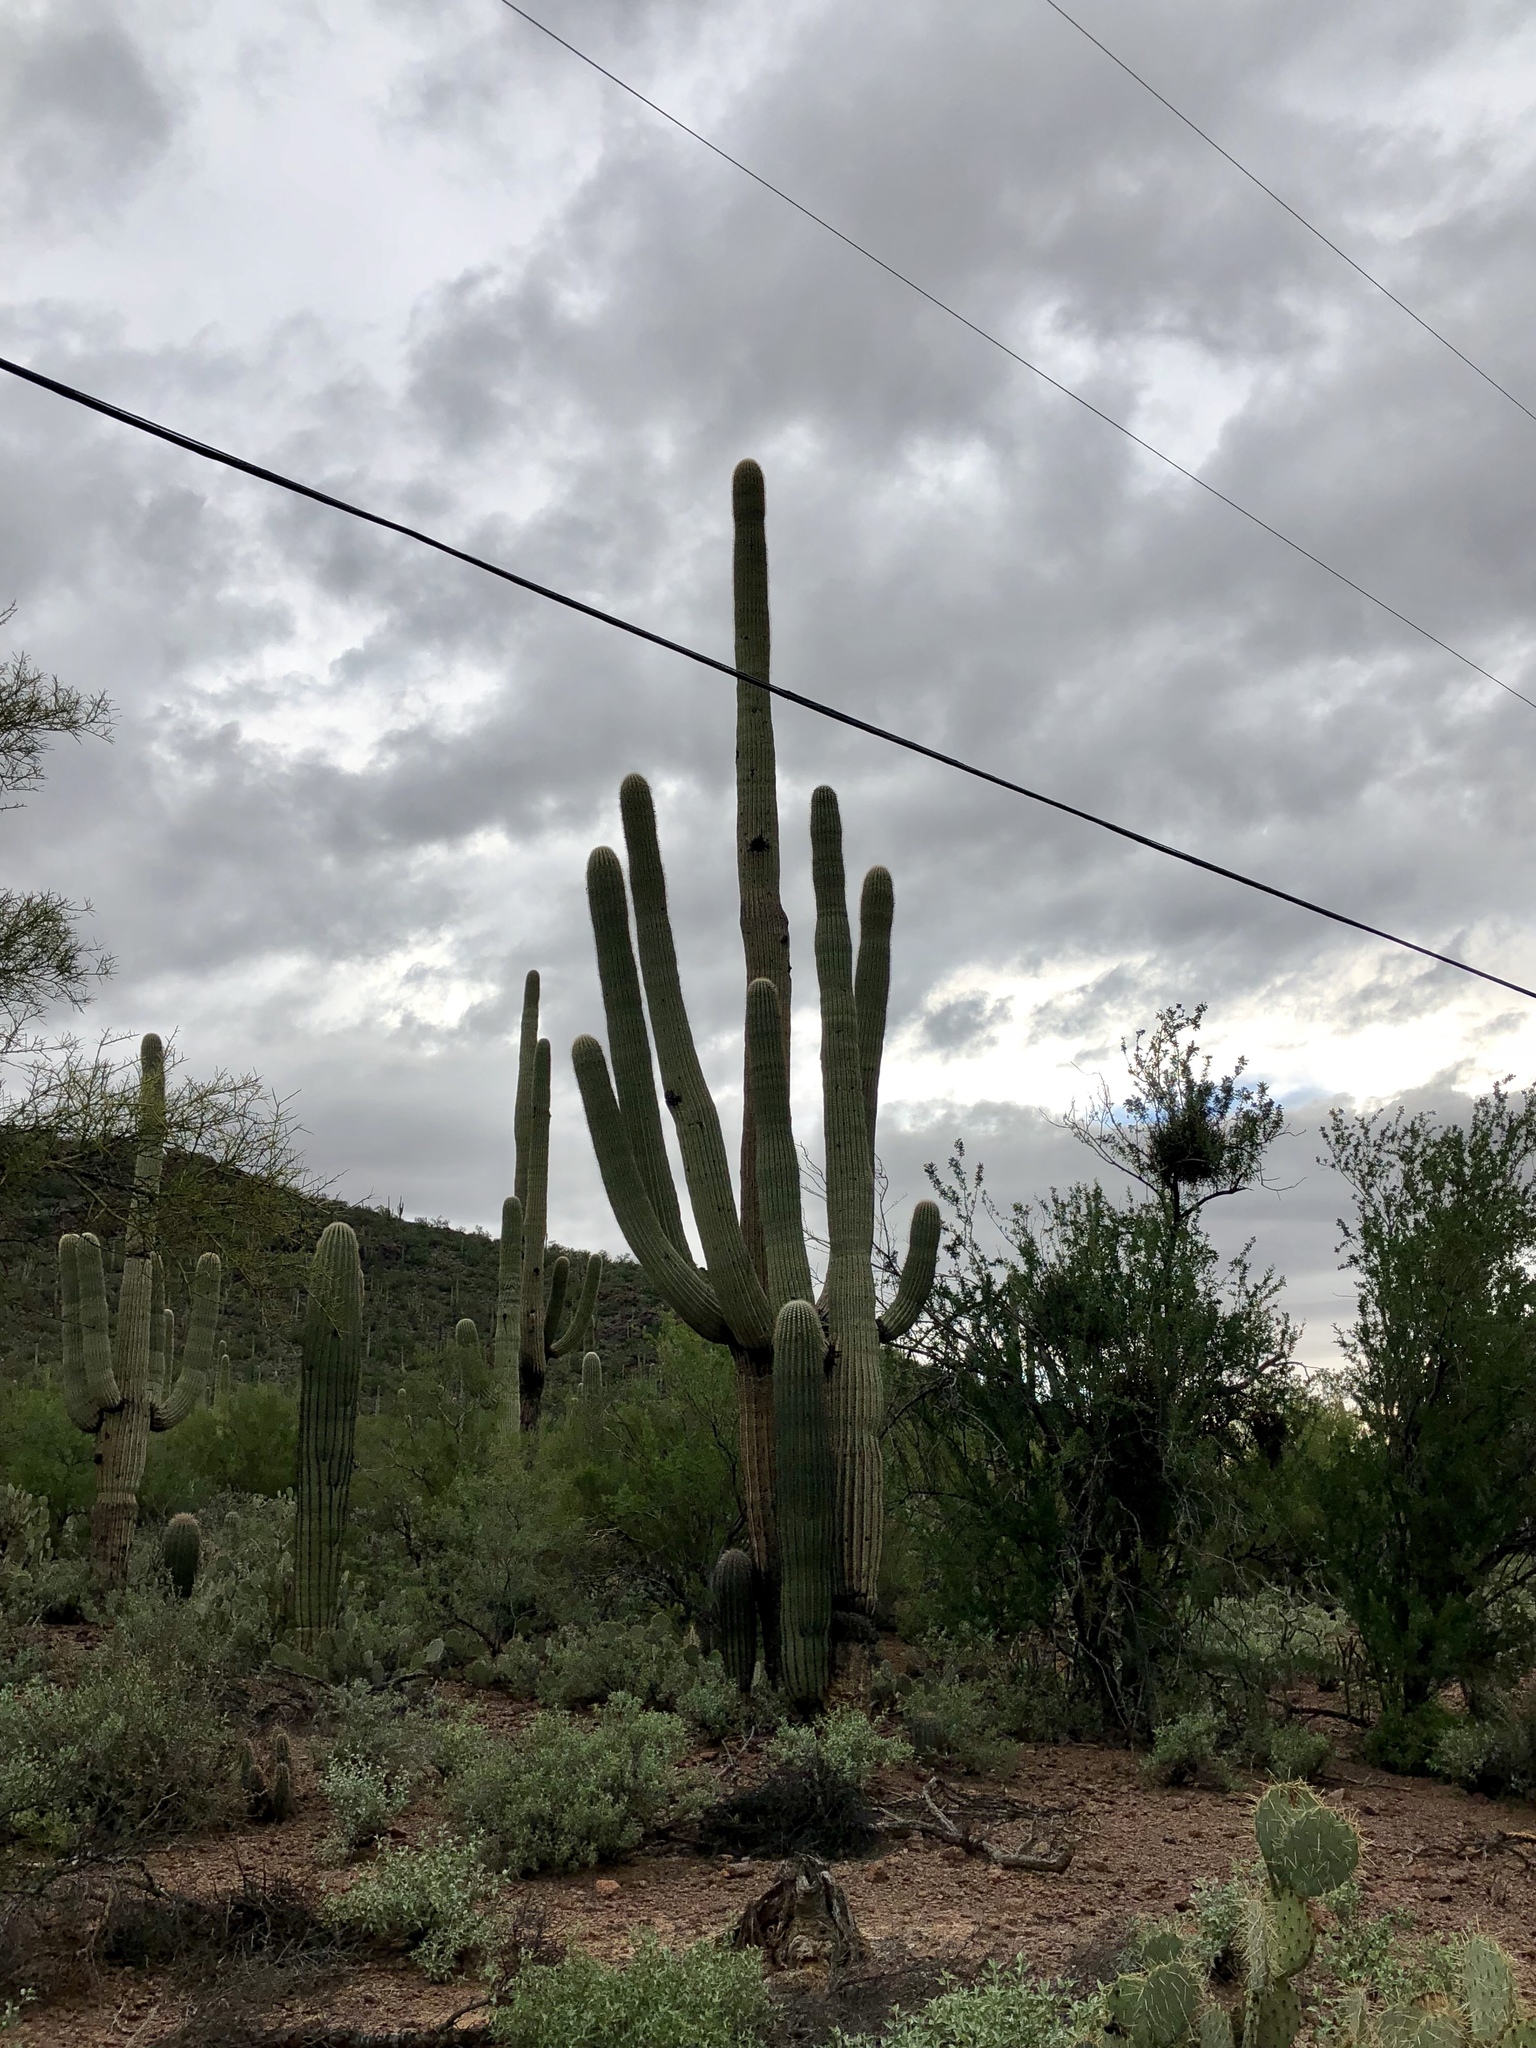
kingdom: Plantae
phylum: Tracheophyta
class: Magnoliopsida
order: Caryophyllales
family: Cactaceae
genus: Carnegiea
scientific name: Carnegiea gigantea
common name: Saguaro
